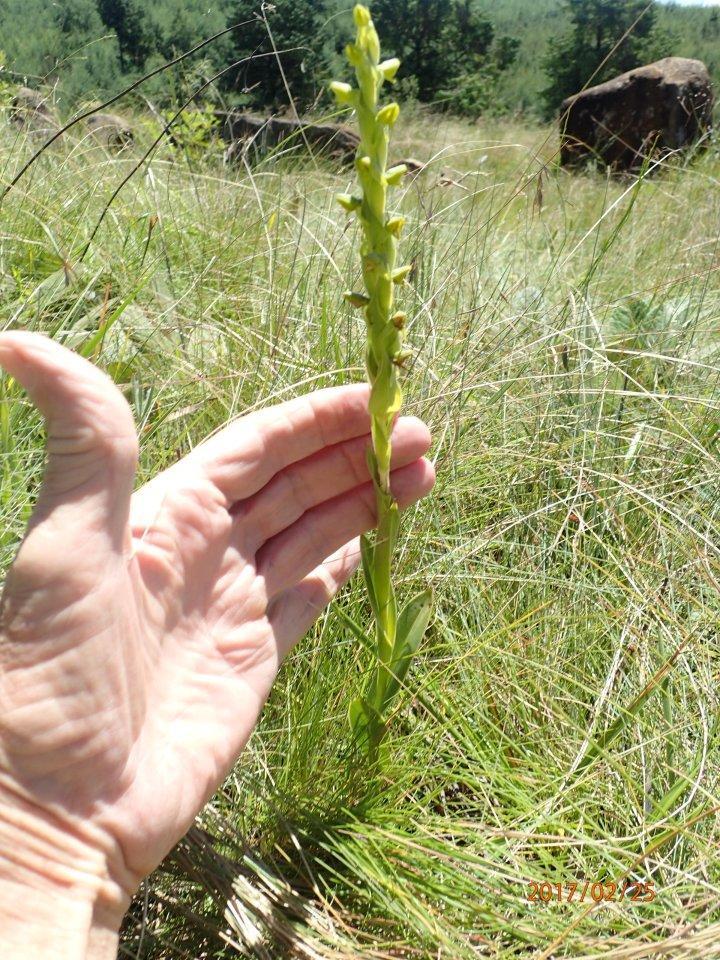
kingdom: Plantae
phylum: Tracheophyta
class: Liliopsida
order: Asparagales
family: Orchidaceae
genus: Habenaria
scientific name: Habenaria laevigata
